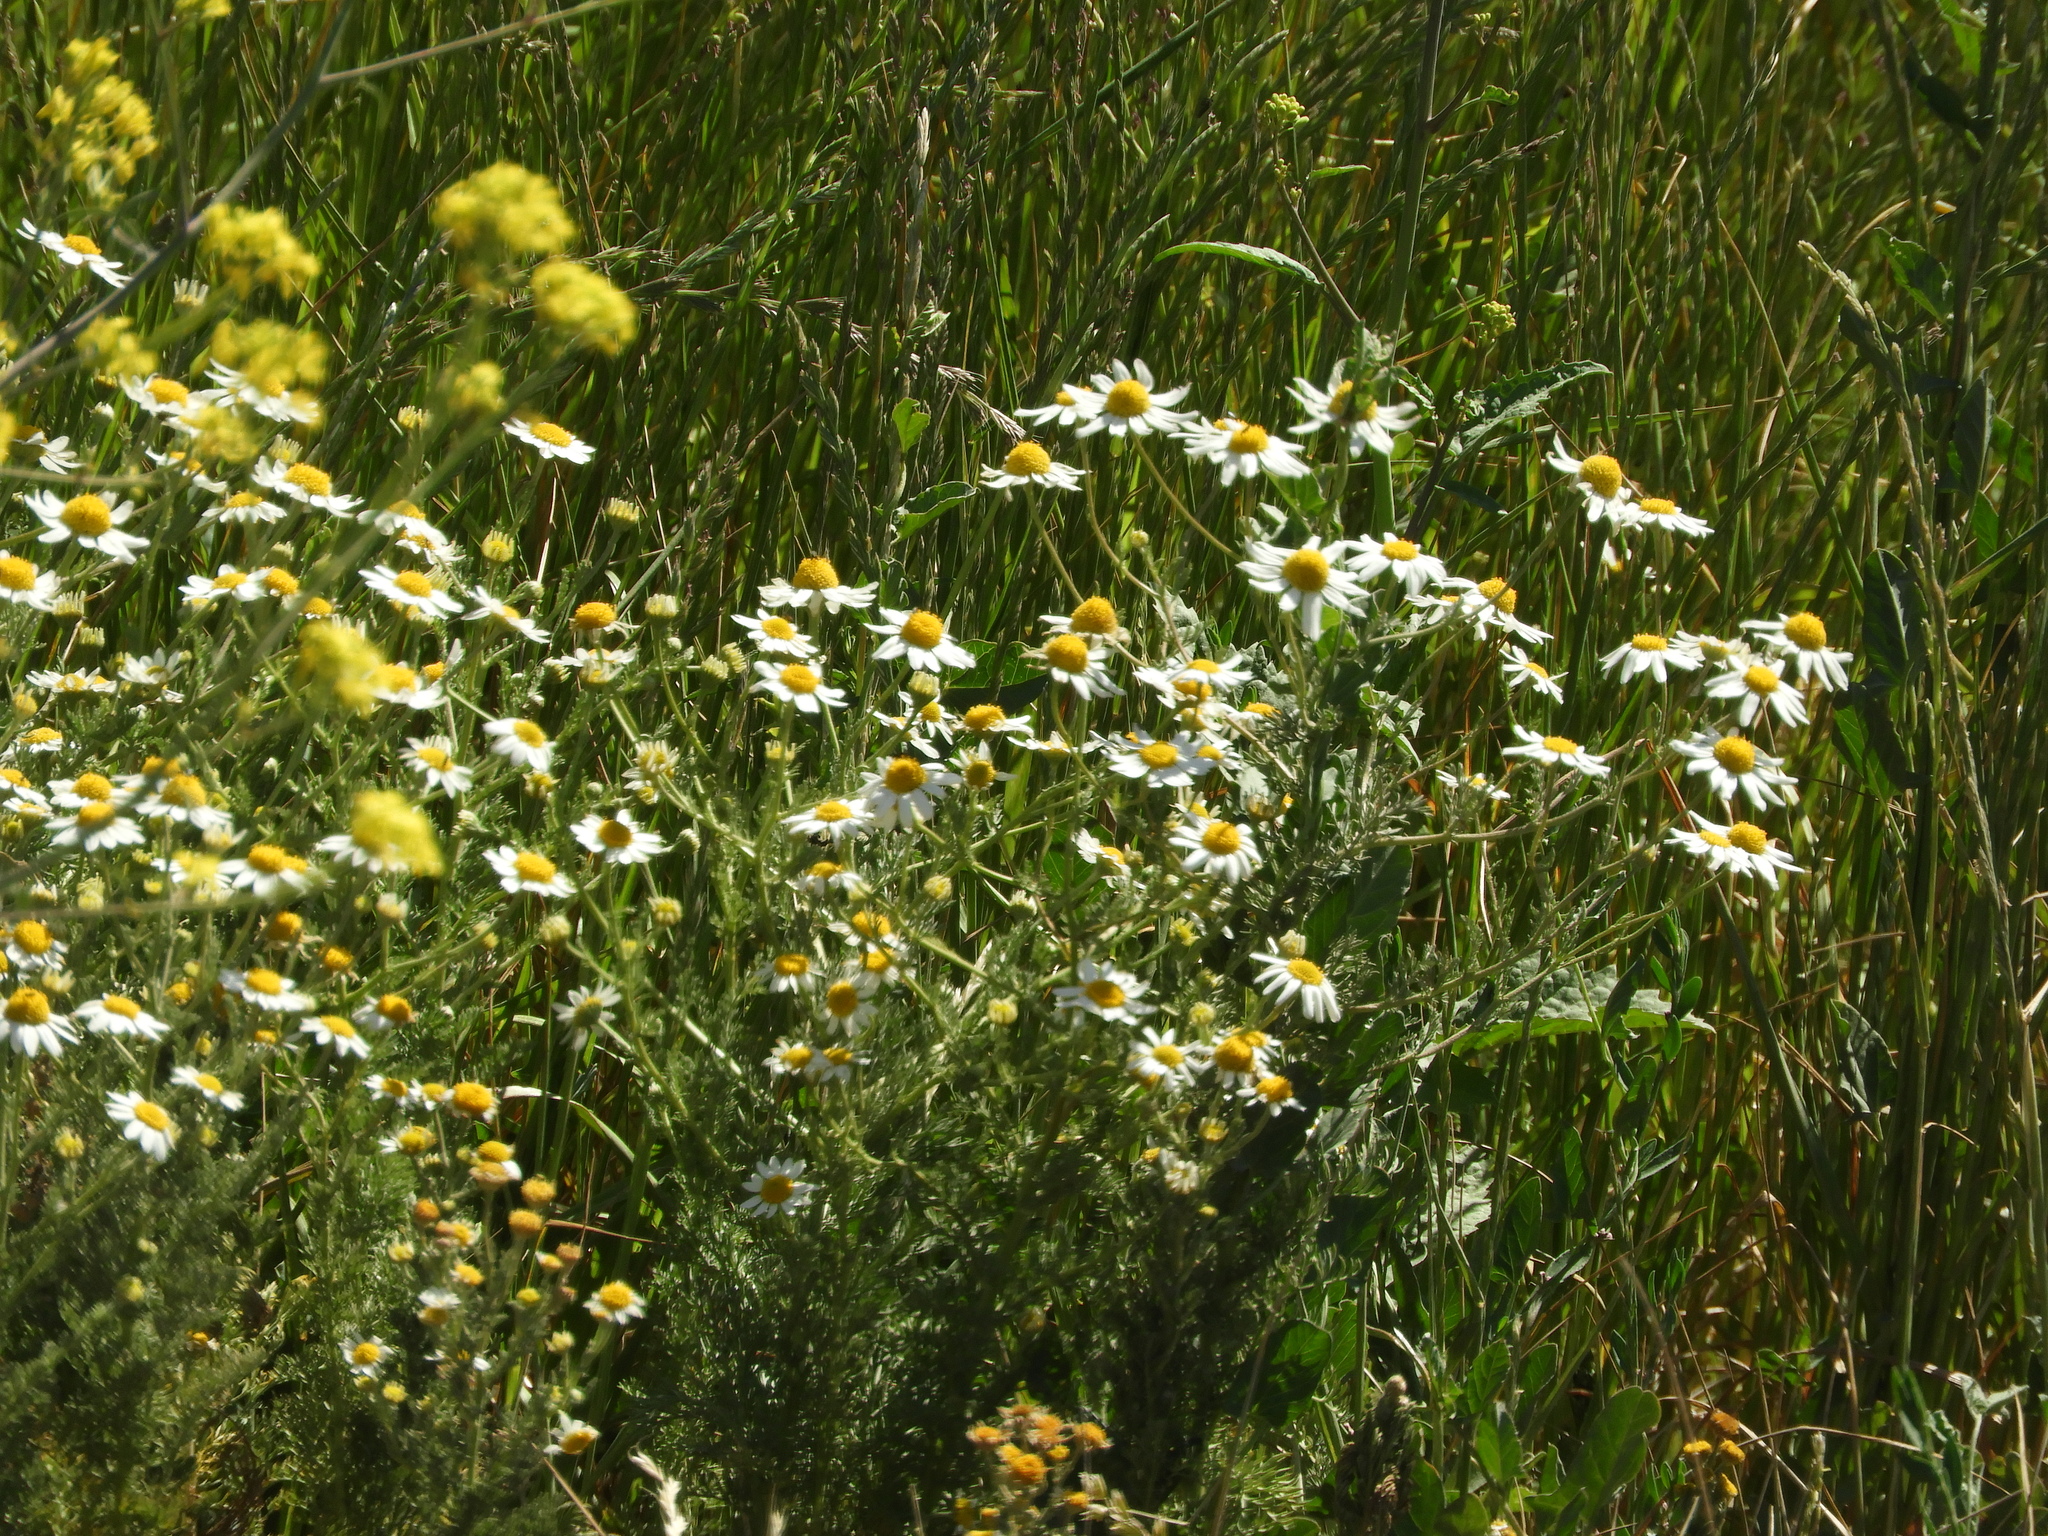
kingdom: Plantae
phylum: Tracheophyta
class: Magnoliopsida
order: Asterales
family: Asteraceae
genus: Anthemis
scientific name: Anthemis cotula
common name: Stinking chamomile
